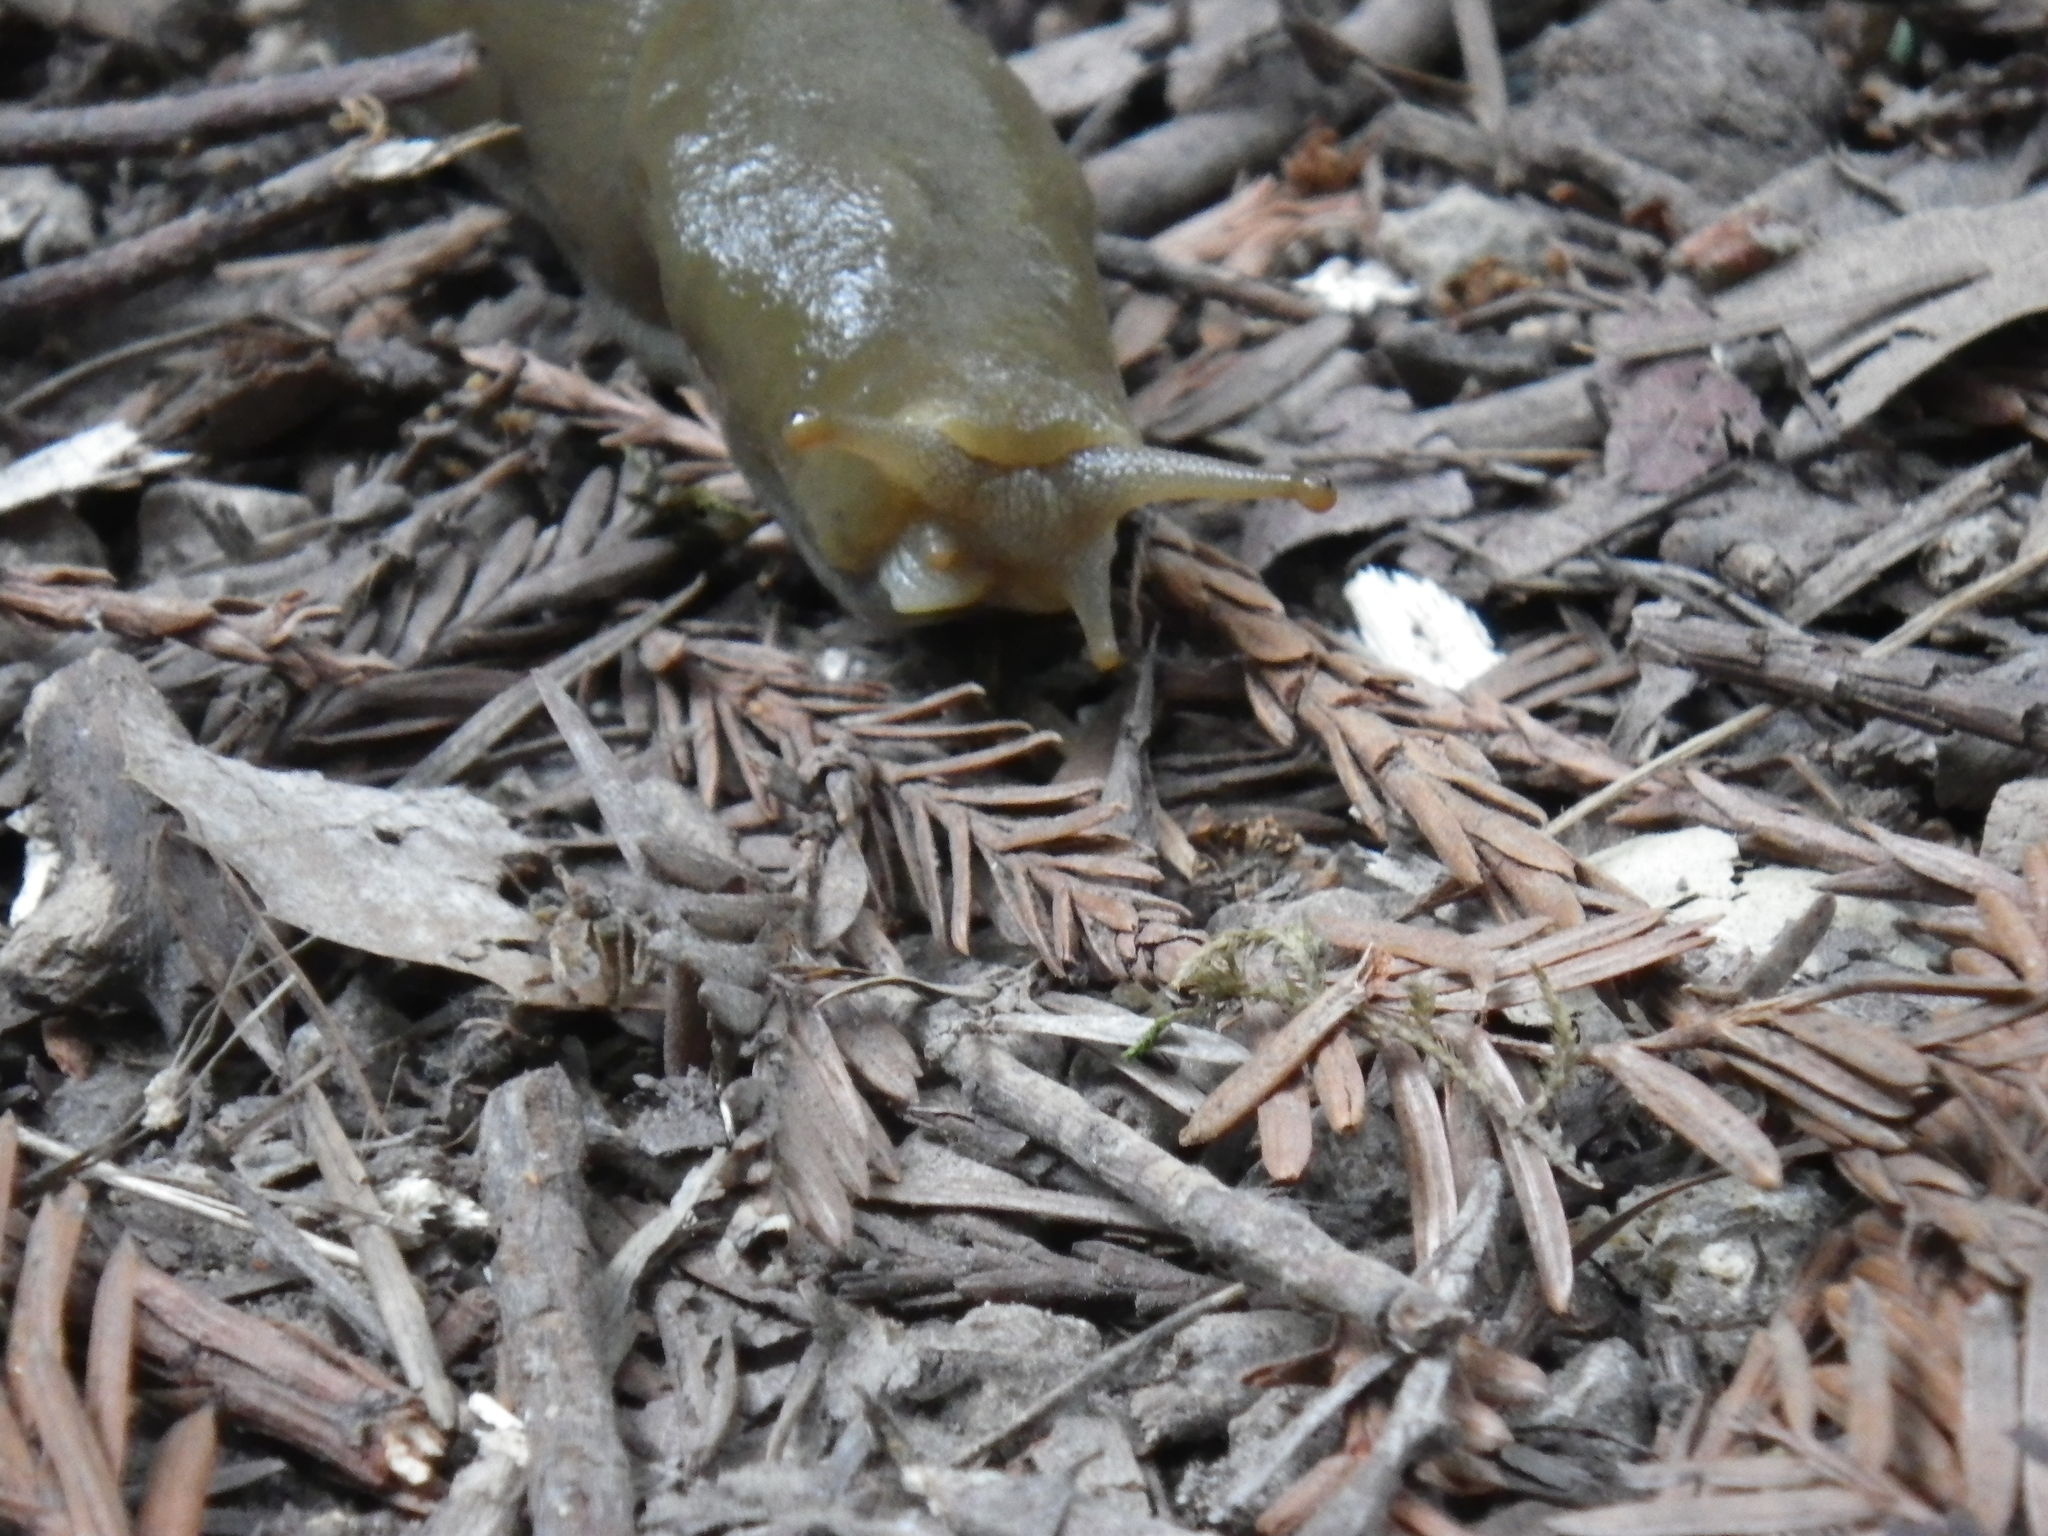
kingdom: Animalia
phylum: Mollusca
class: Gastropoda
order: Stylommatophora
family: Ariolimacidae
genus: Ariolimax
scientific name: Ariolimax buttoni
